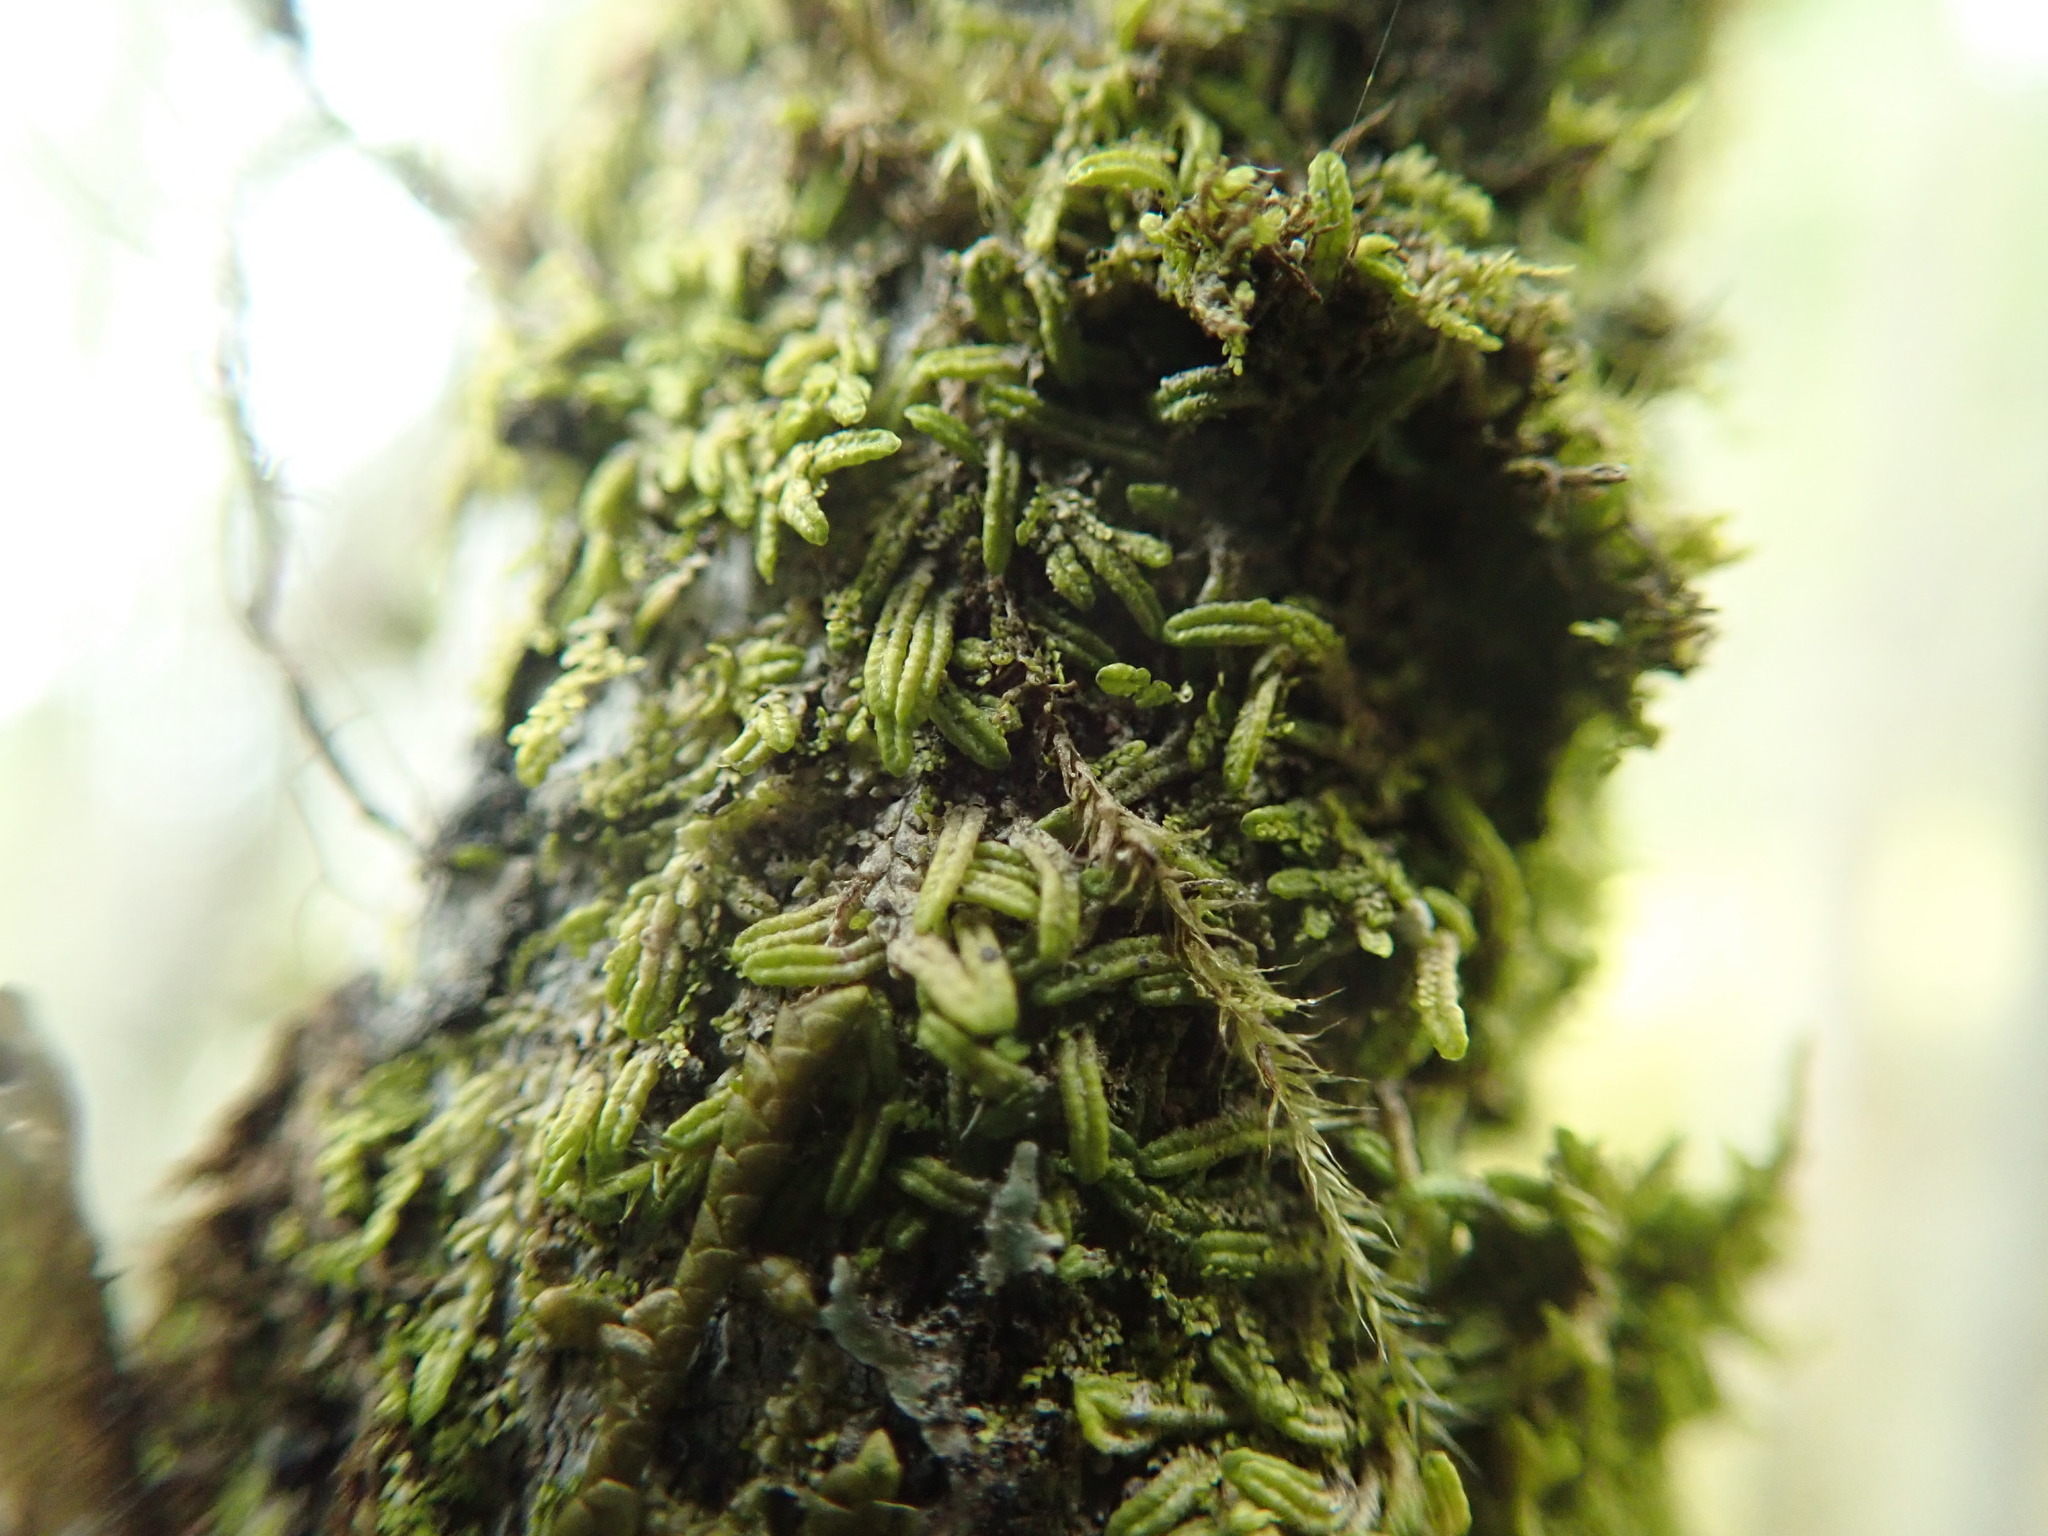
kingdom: Plantae
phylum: Marchantiophyta
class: Jungermanniopsida
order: Porellales
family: Radulaceae
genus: Radula
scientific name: Radula bolanderi
